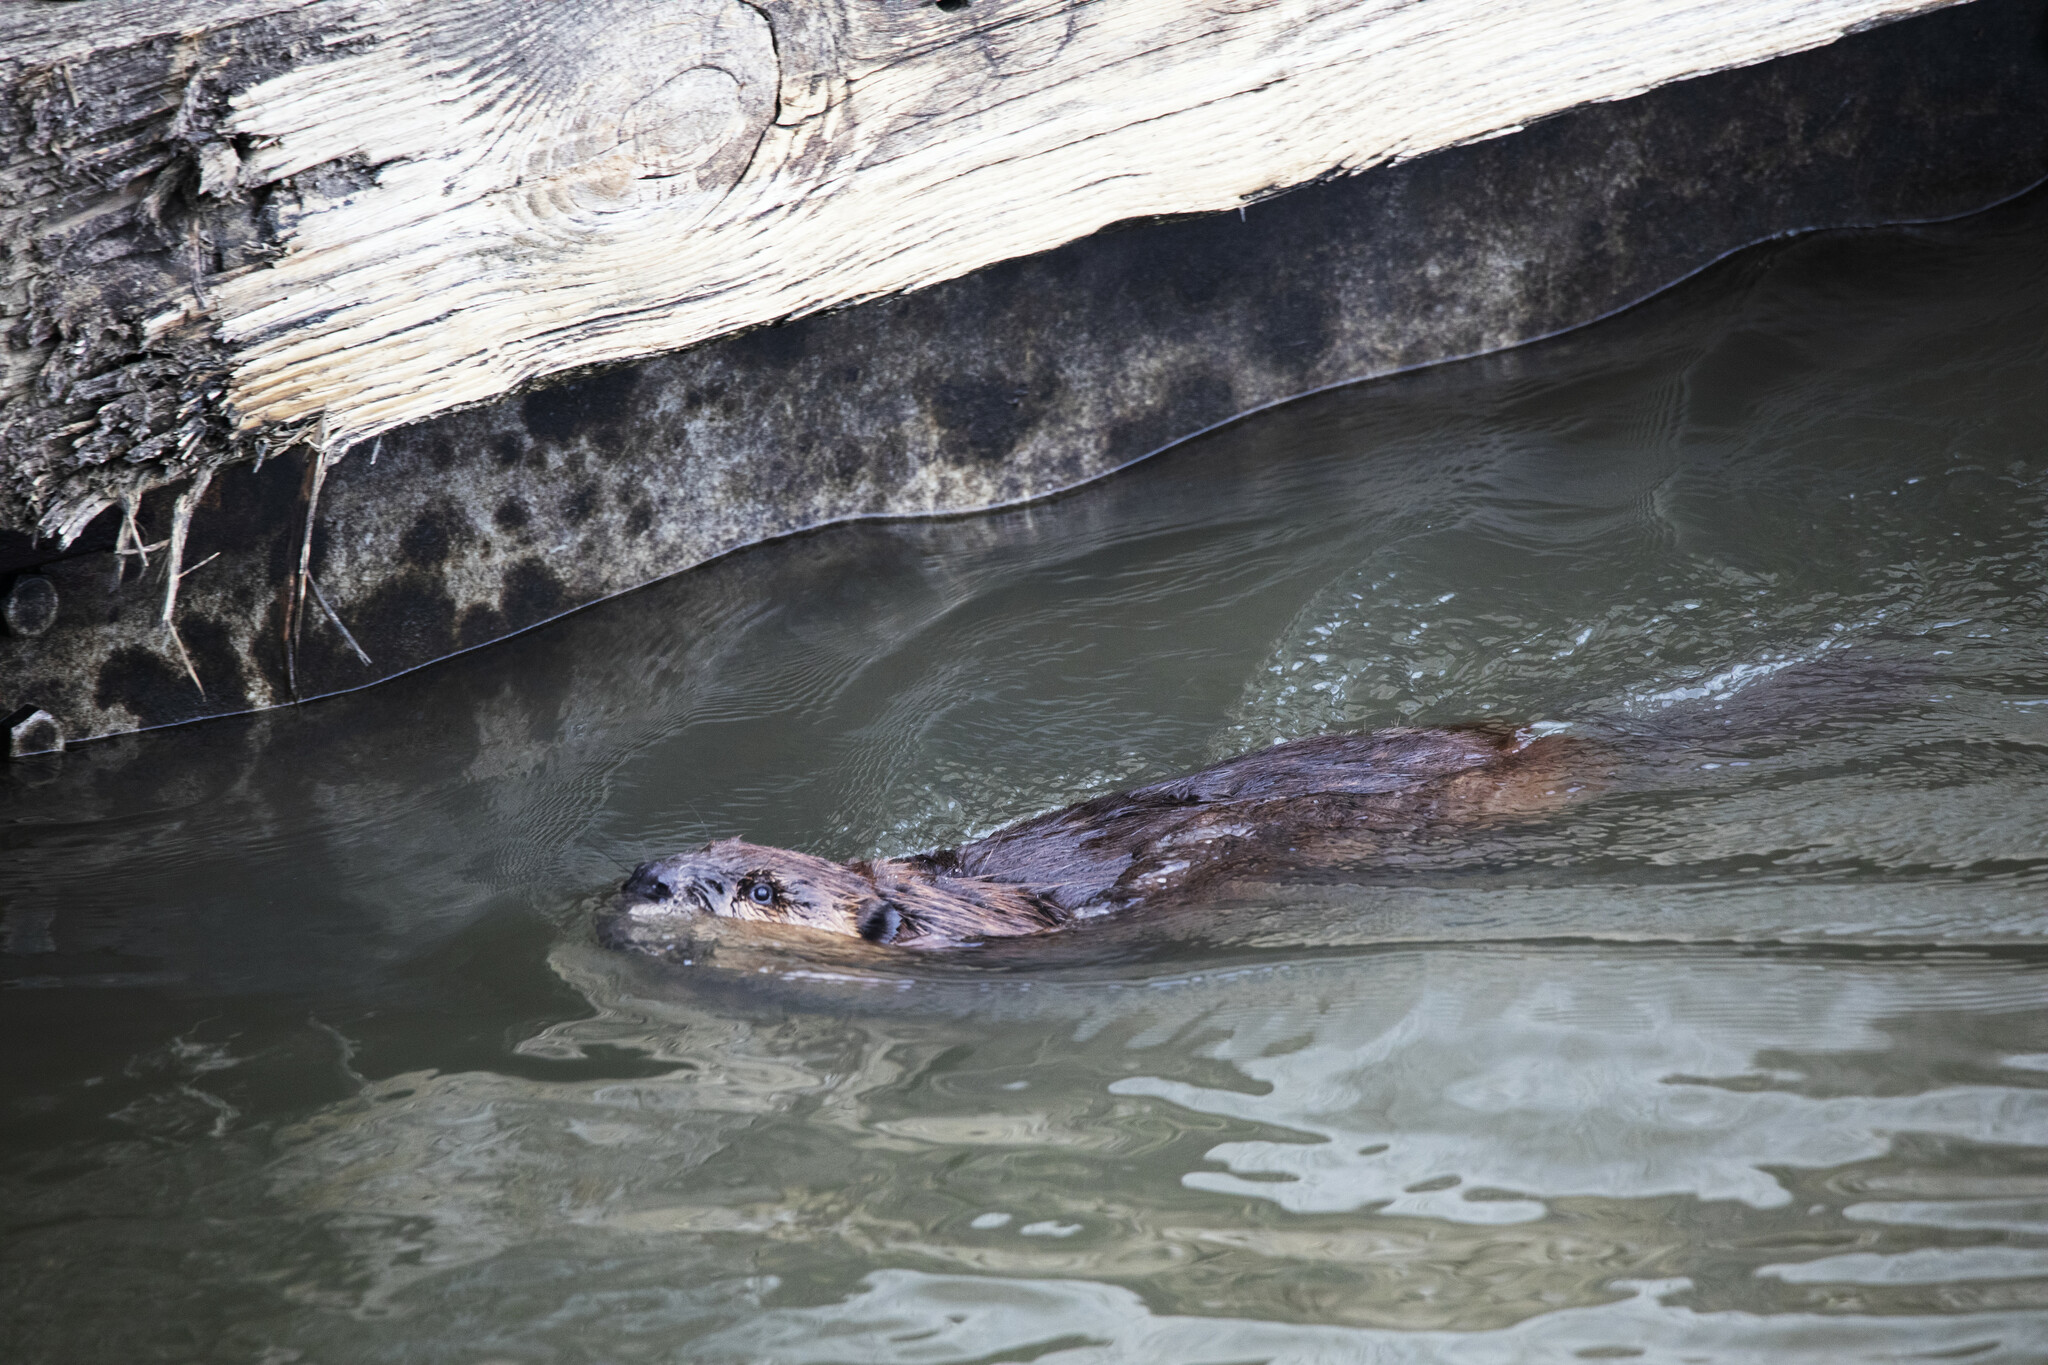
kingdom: Animalia
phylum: Chordata
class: Mammalia
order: Rodentia
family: Castoridae
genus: Castor
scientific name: Castor canadensis
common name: American beaver
